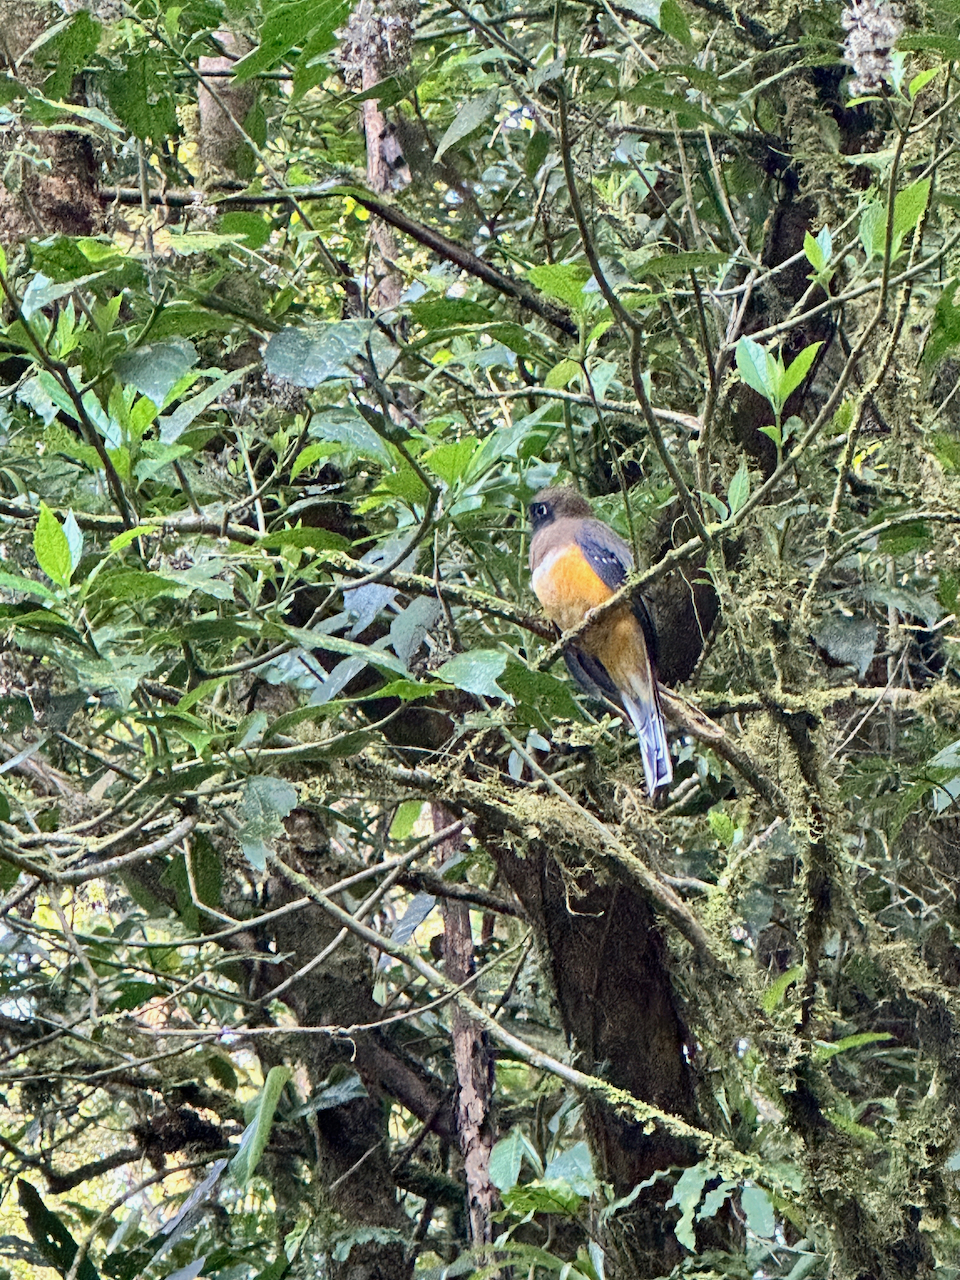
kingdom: Animalia
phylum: Chordata
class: Aves
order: Trogoniformes
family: Trogonidae
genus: Trogon
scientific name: Trogon collaris
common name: Collared trogon
